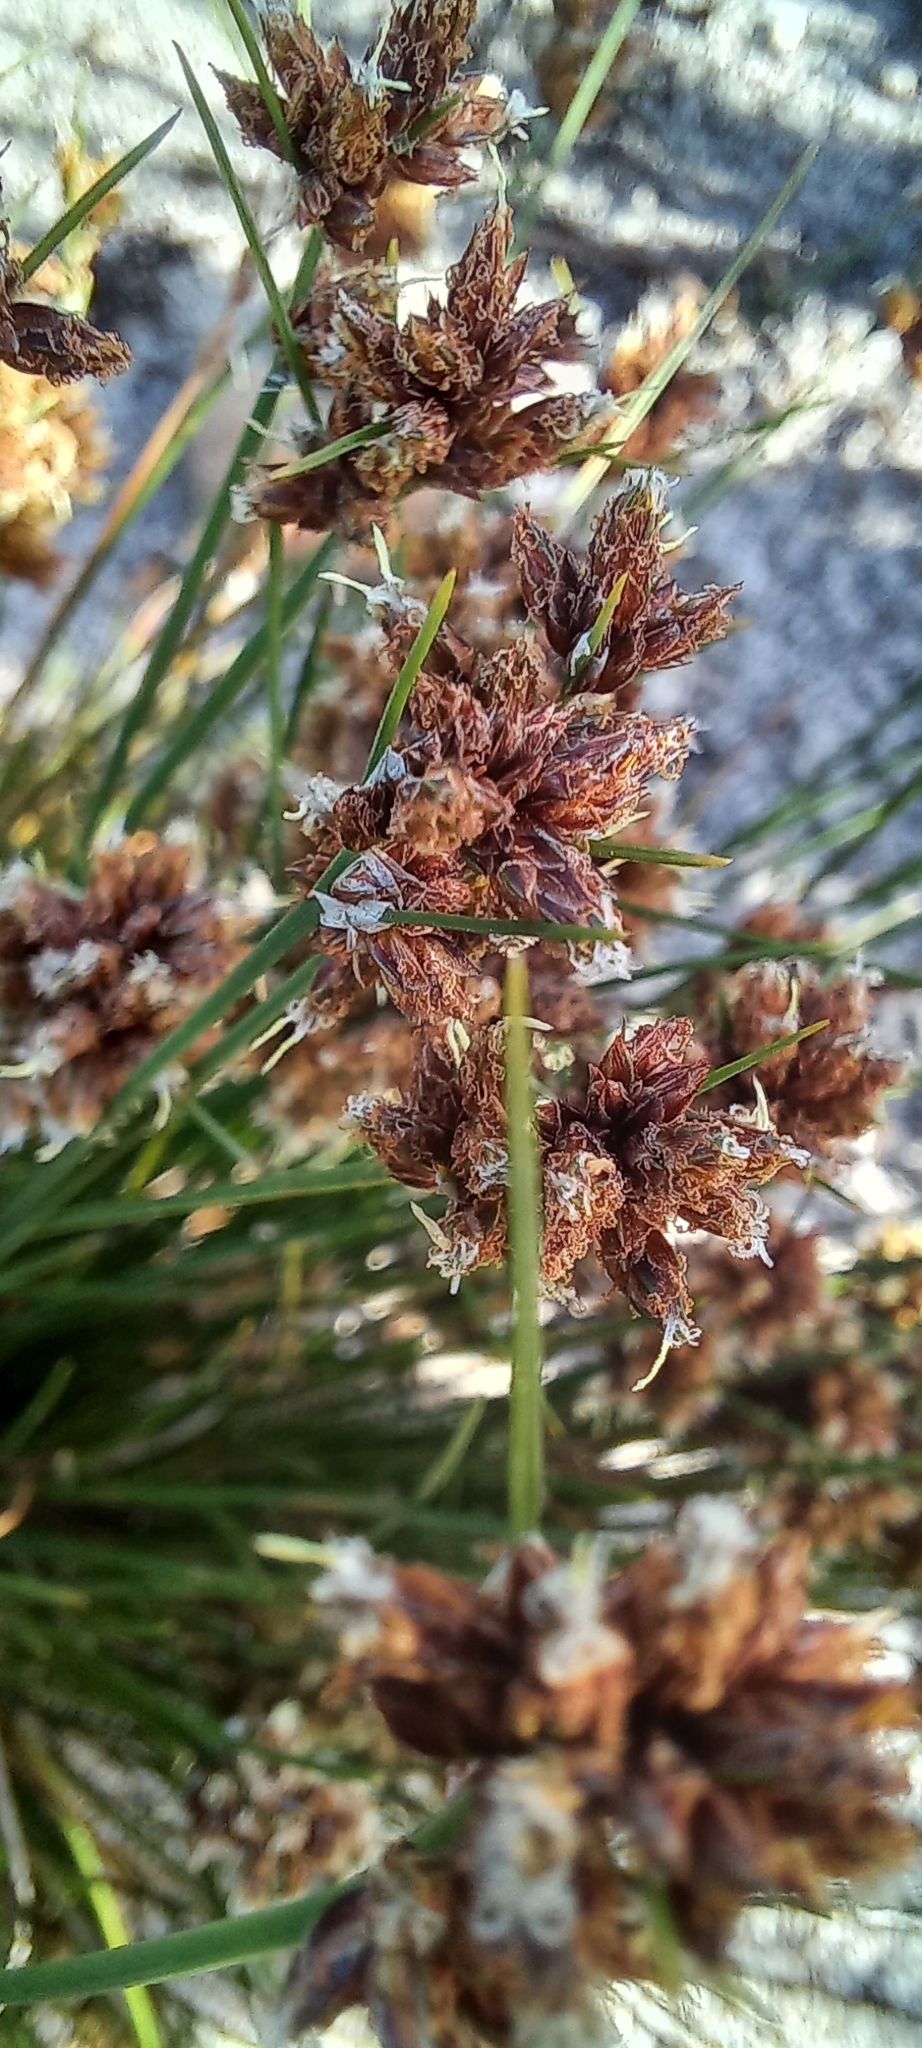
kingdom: Plantae
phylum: Tracheophyta
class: Liliopsida
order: Poales
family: Cyperaceae
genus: Ficinia
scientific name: Ficinia bulbosa
